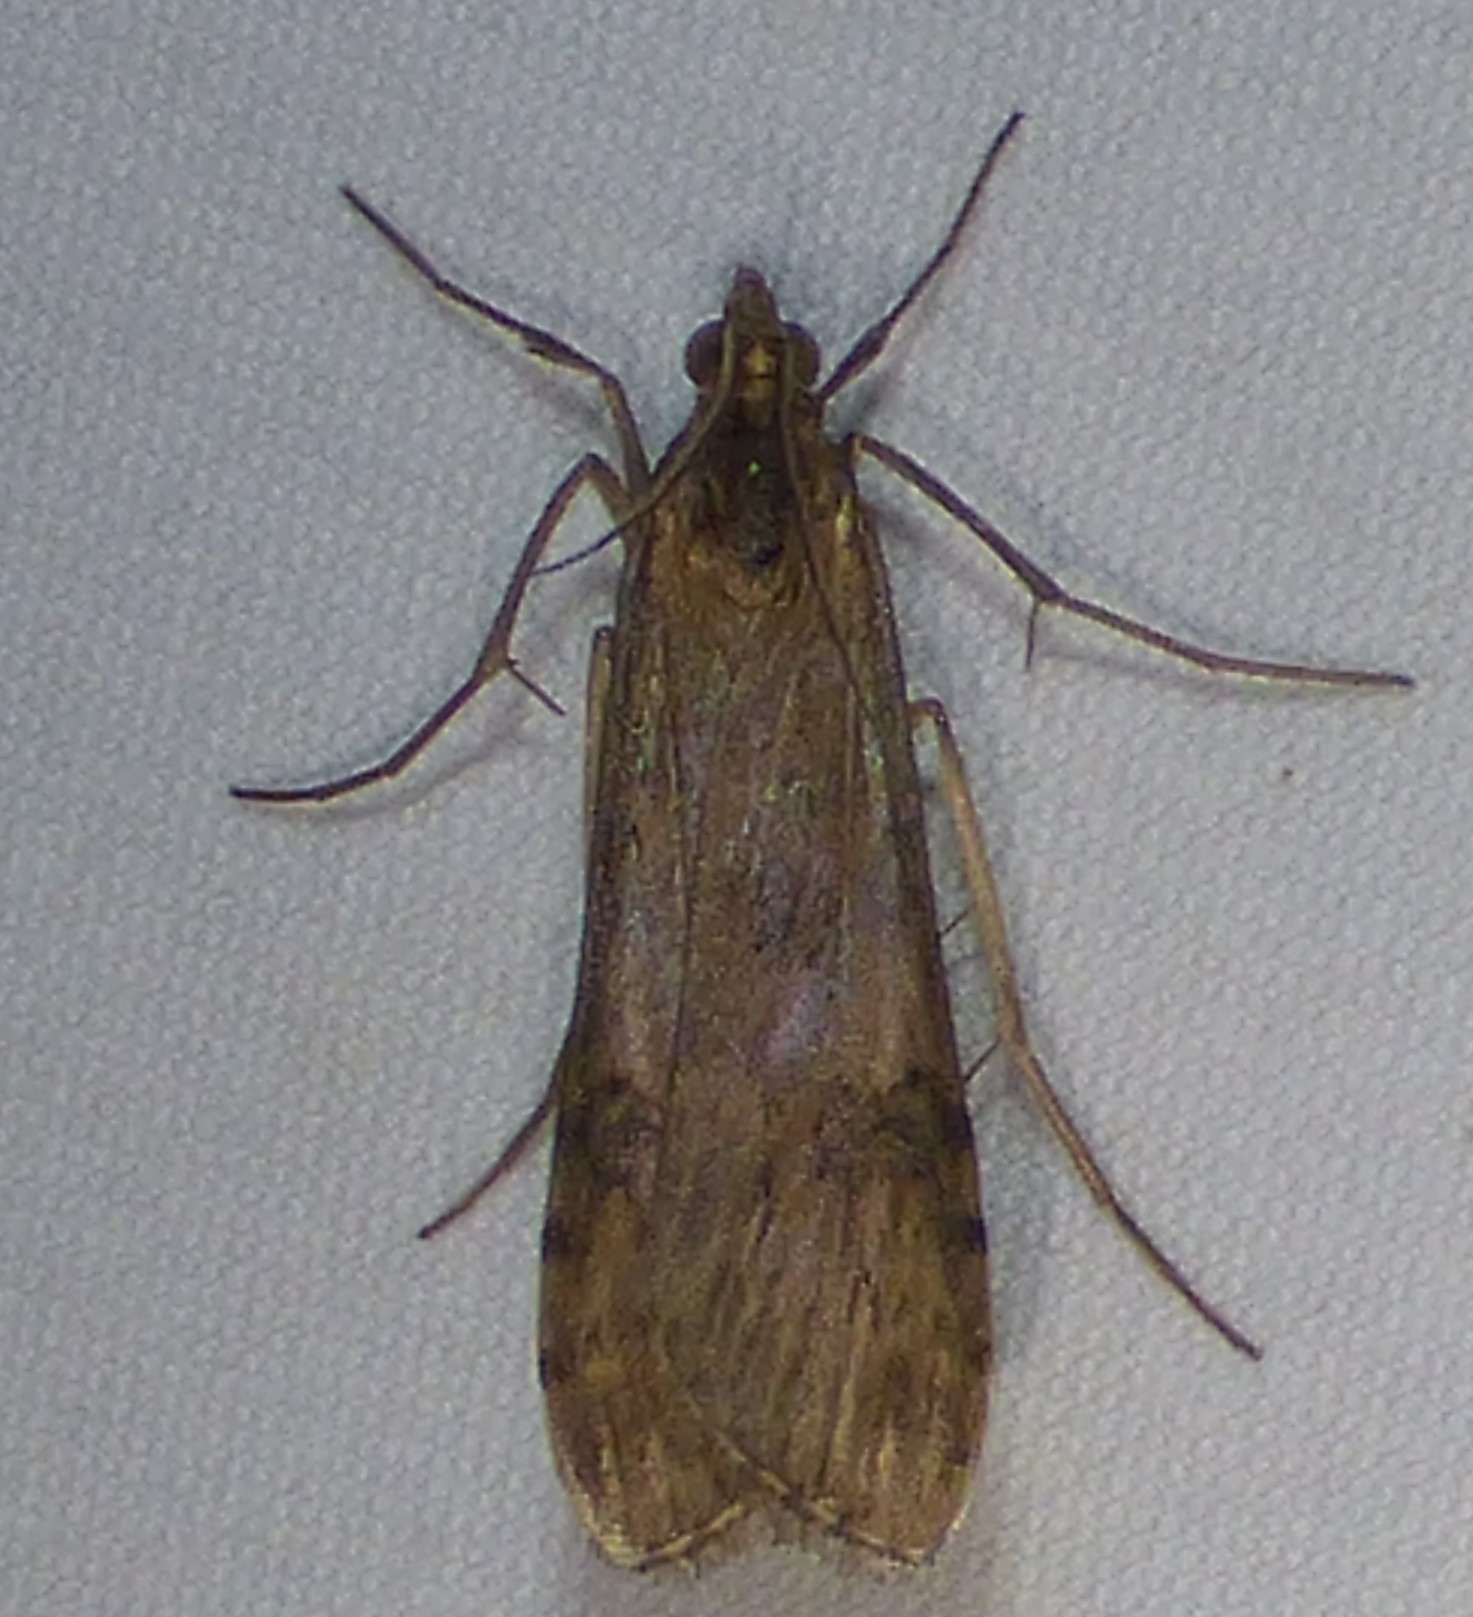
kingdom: Animalia
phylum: Arthropoda
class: Insecta
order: Lepidoptera
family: Crambidae
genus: Nomophila
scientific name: Nomophila nearctica
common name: American rush veneer
